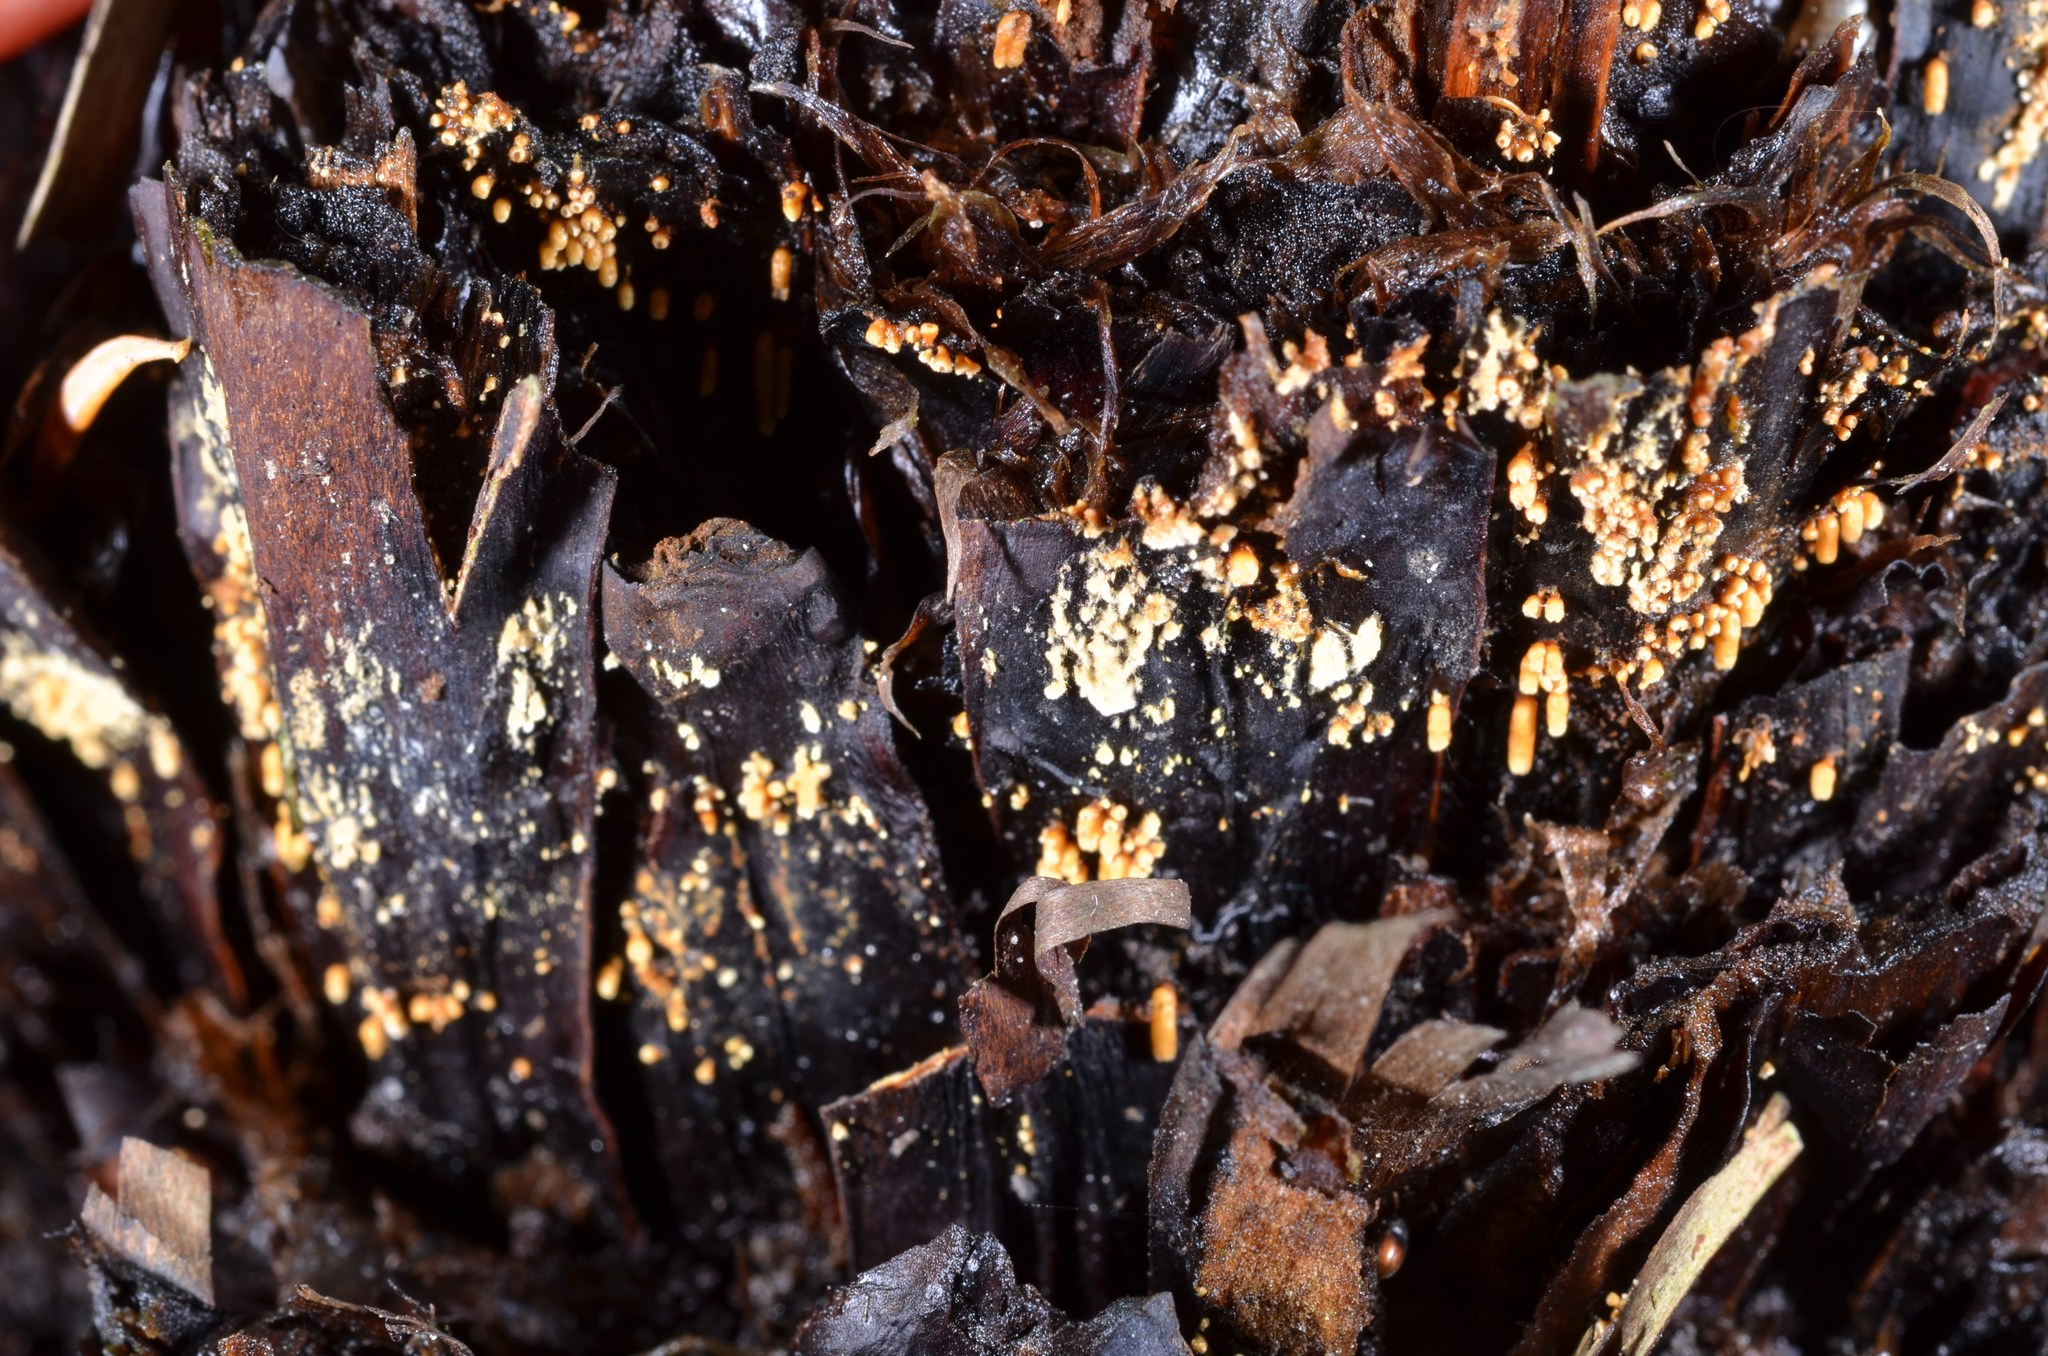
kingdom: Fungi
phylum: Basidiomycota
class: Agaricomycetes
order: Agaricales
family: Niaceae
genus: Woldmaria
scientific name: Woldmaria filicina
